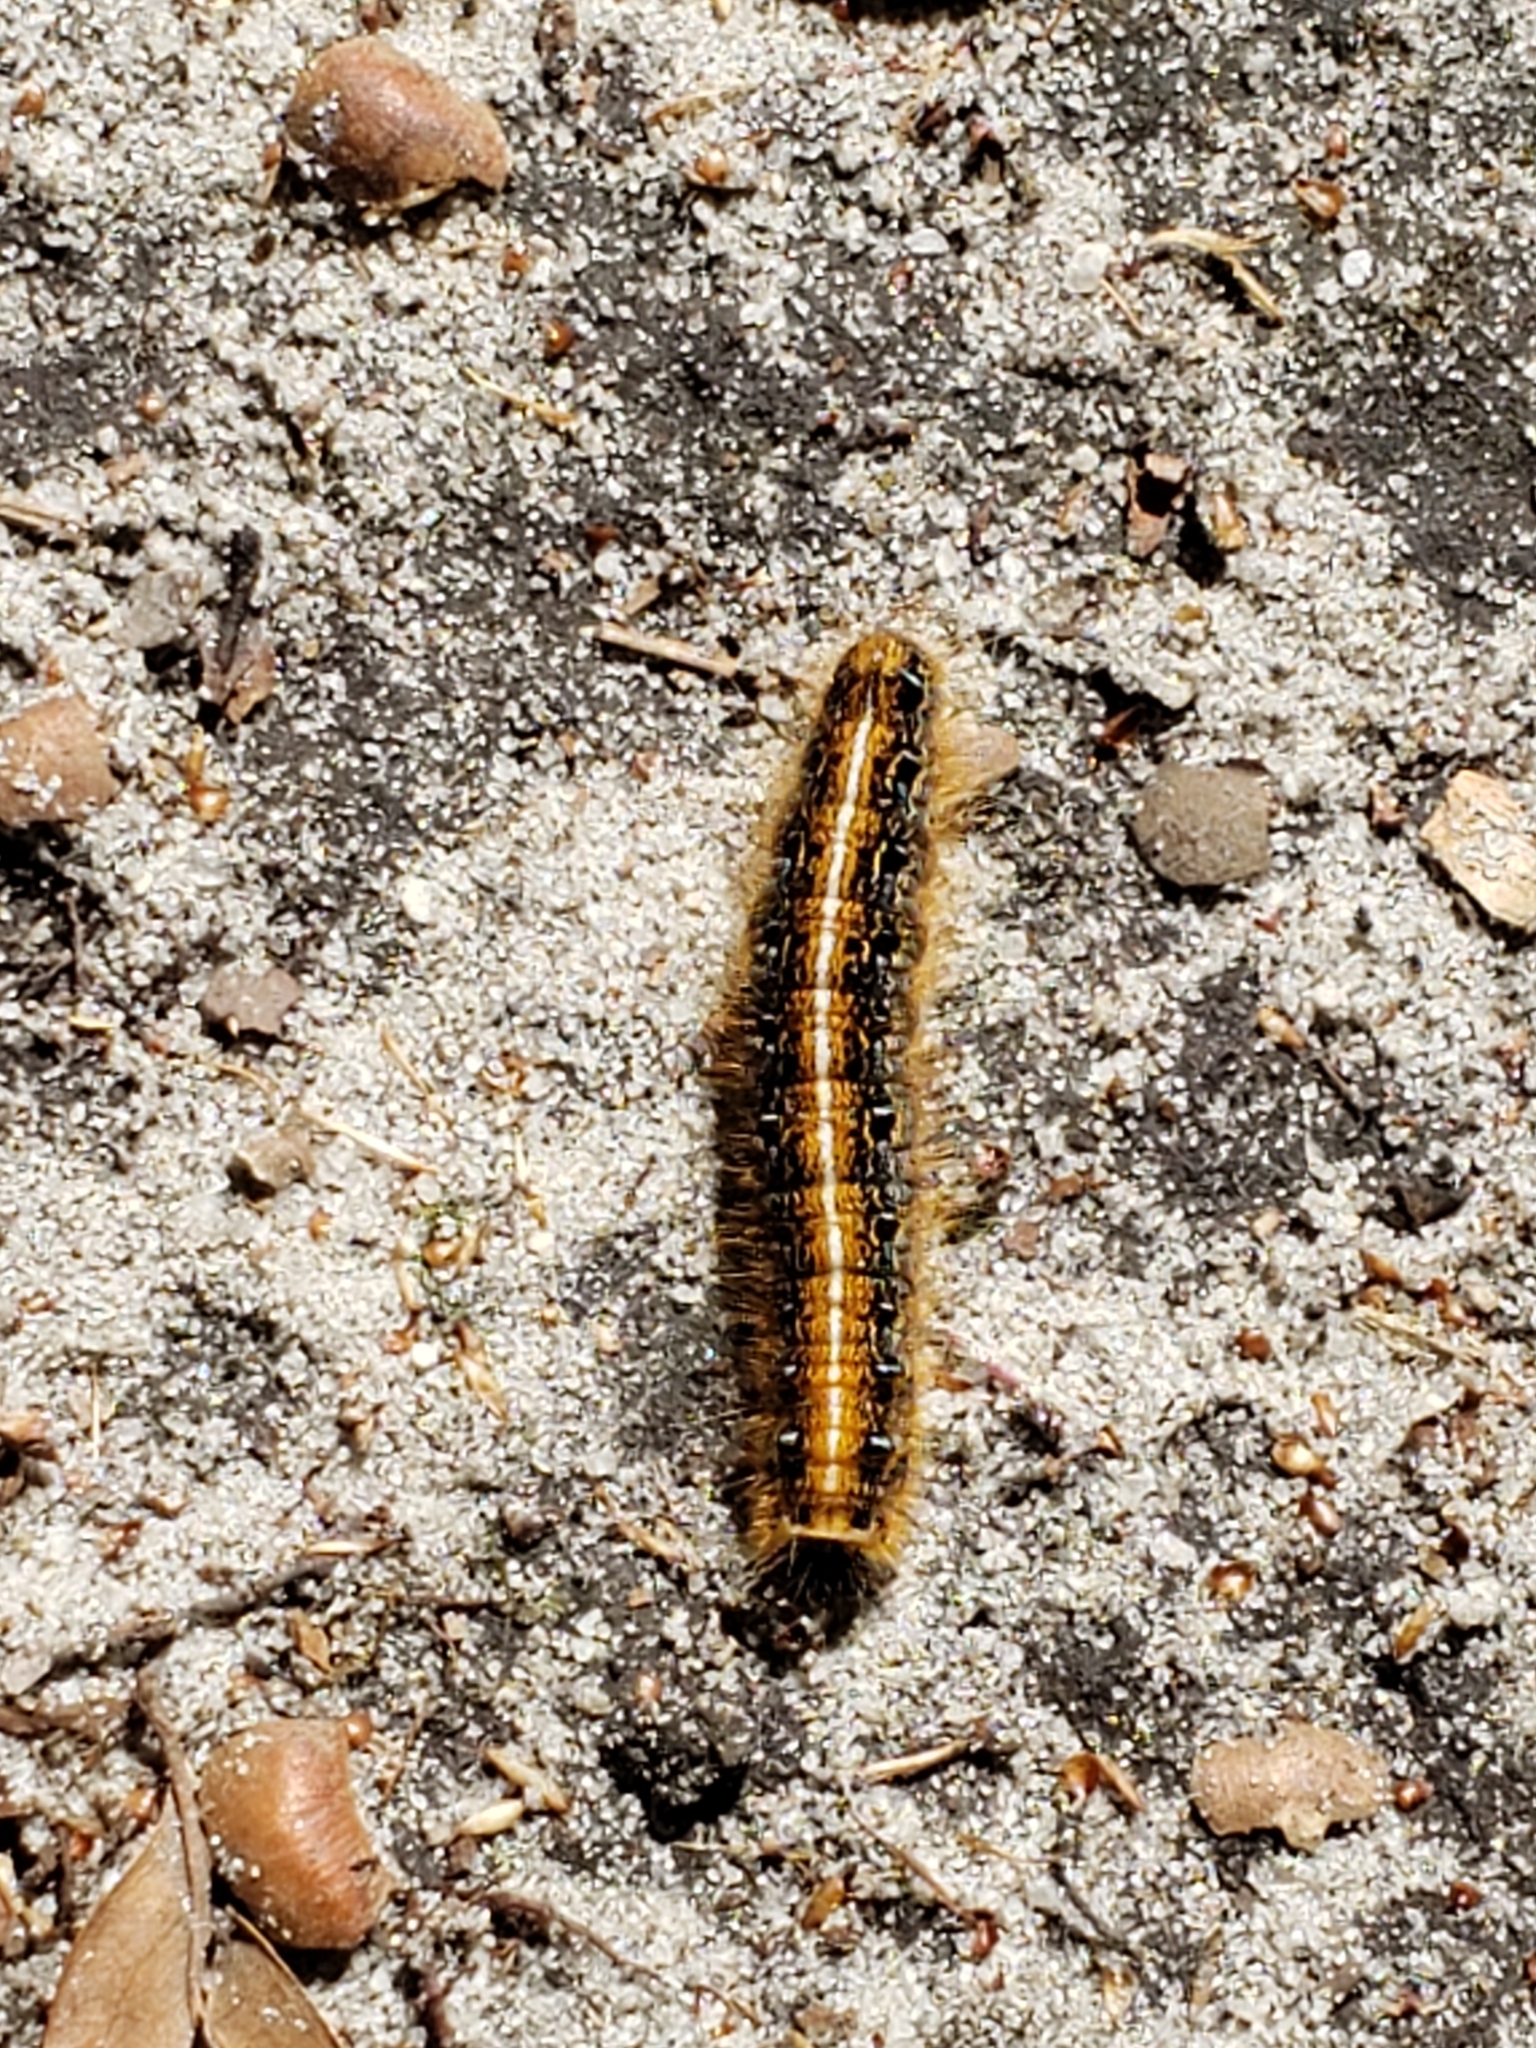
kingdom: Animalia
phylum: Arthropoda
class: Insecta
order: Lepidoptera
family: Lasiocampidae
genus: Malacosoma
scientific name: Malacosoma americana
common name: Eastern tent caterpillar moth
